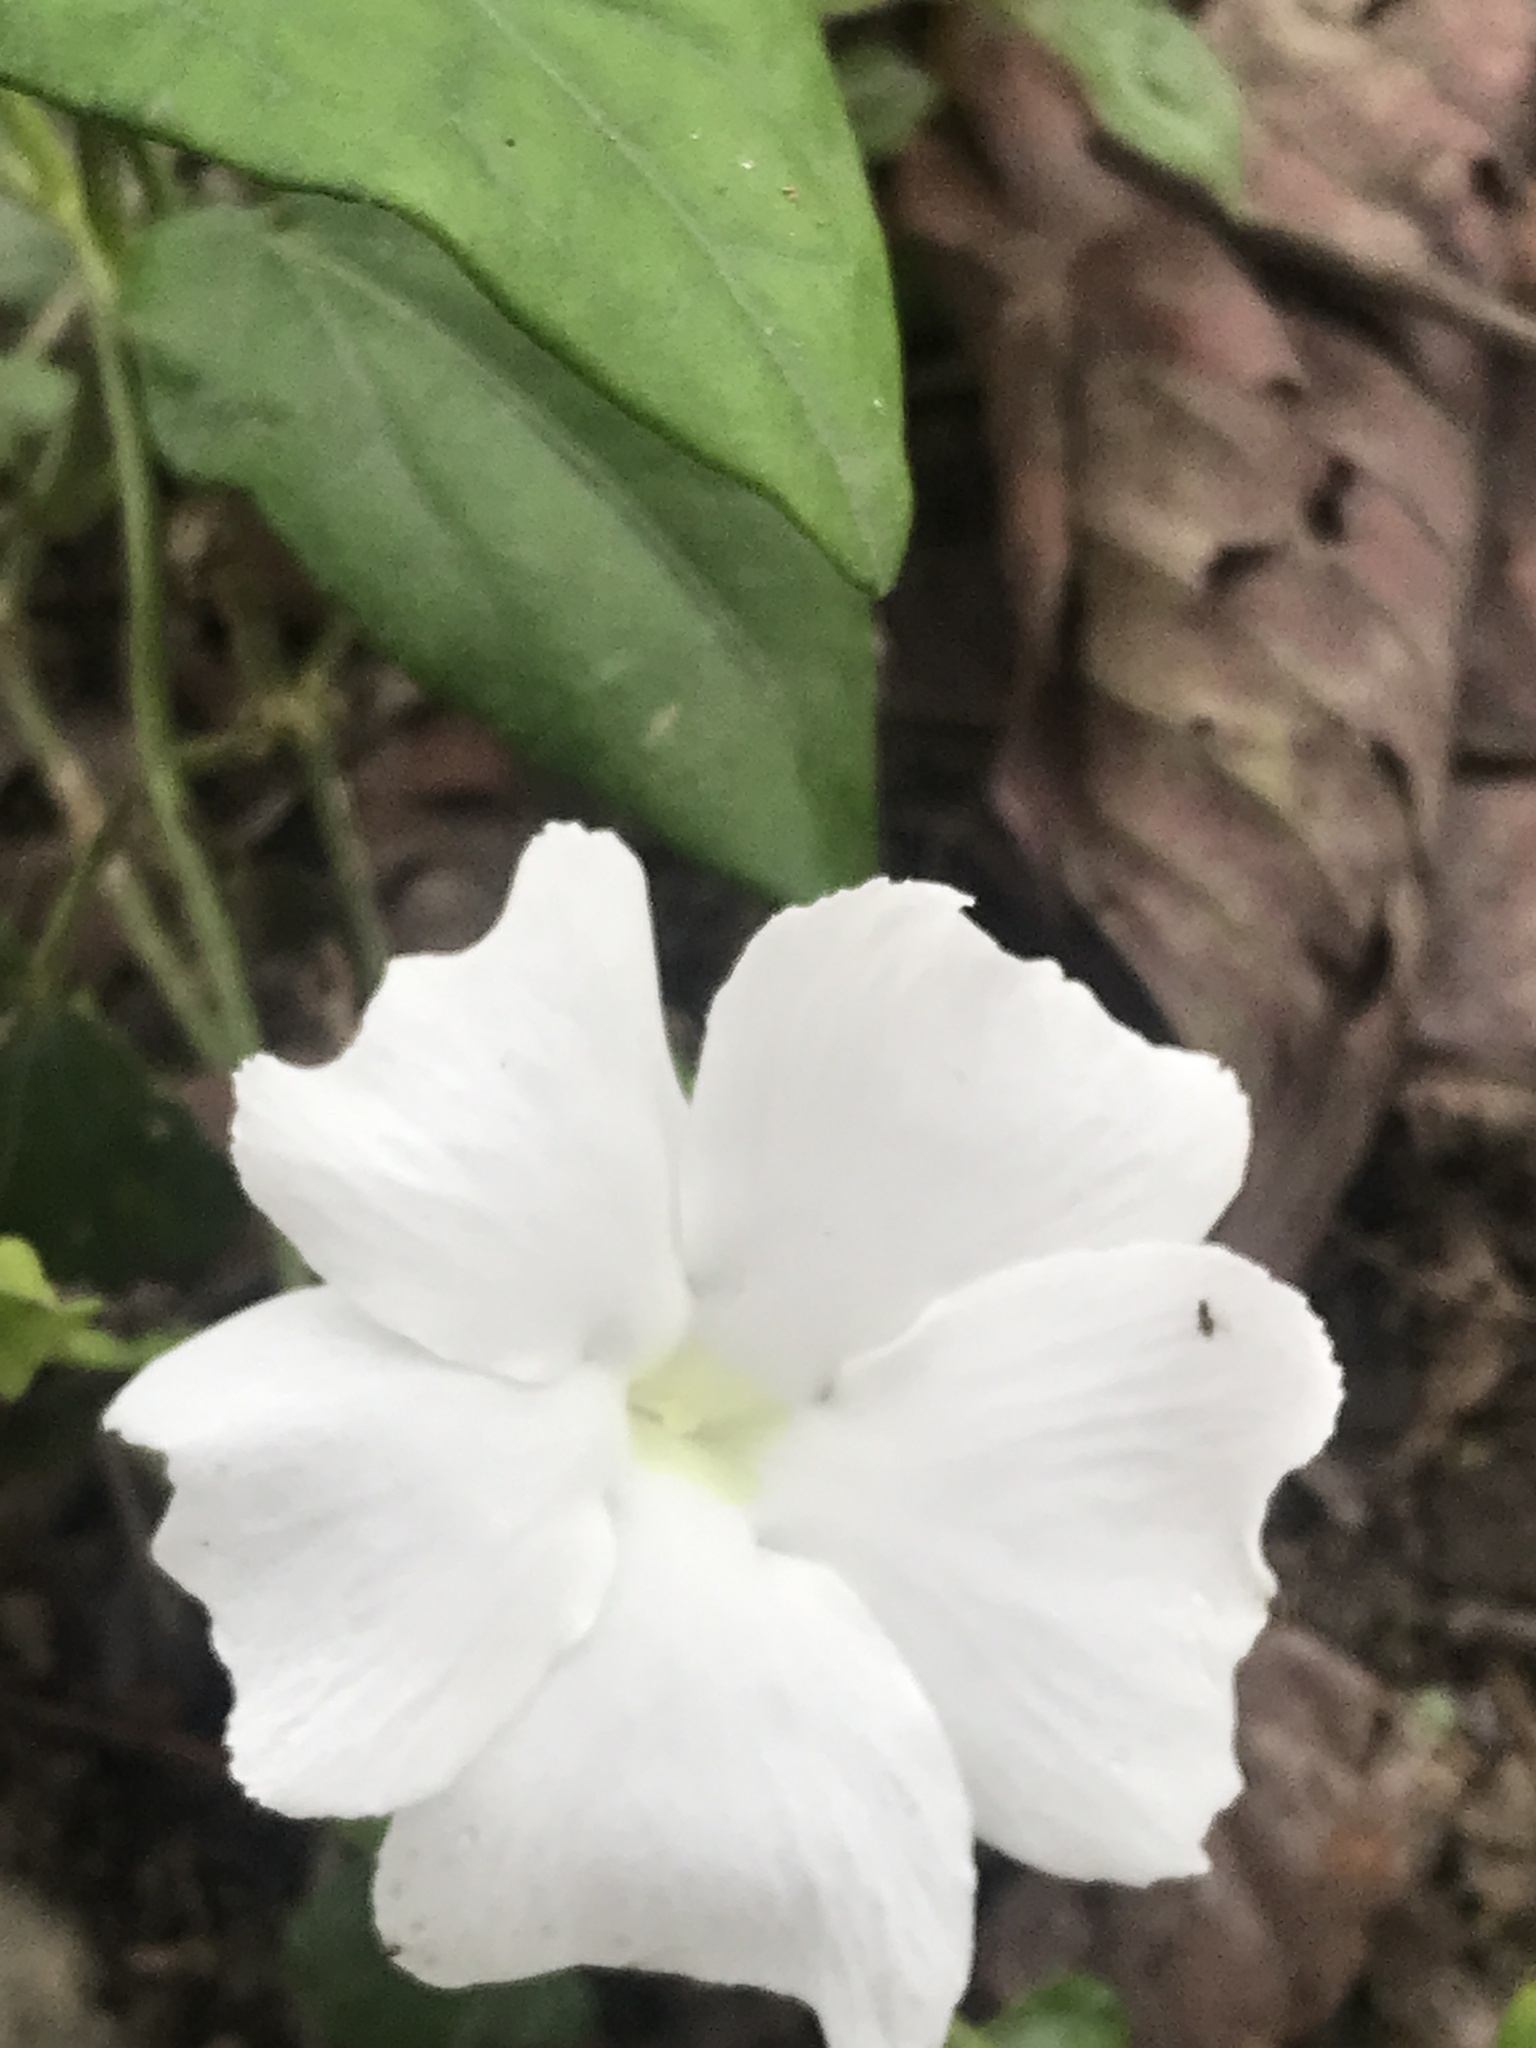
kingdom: Plantae
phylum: Tracheophyta
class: Magnoliopsida
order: Lamiales
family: Acanthaceae
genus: Thunbergia
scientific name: Thunbergia fragrans
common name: Whitelady
